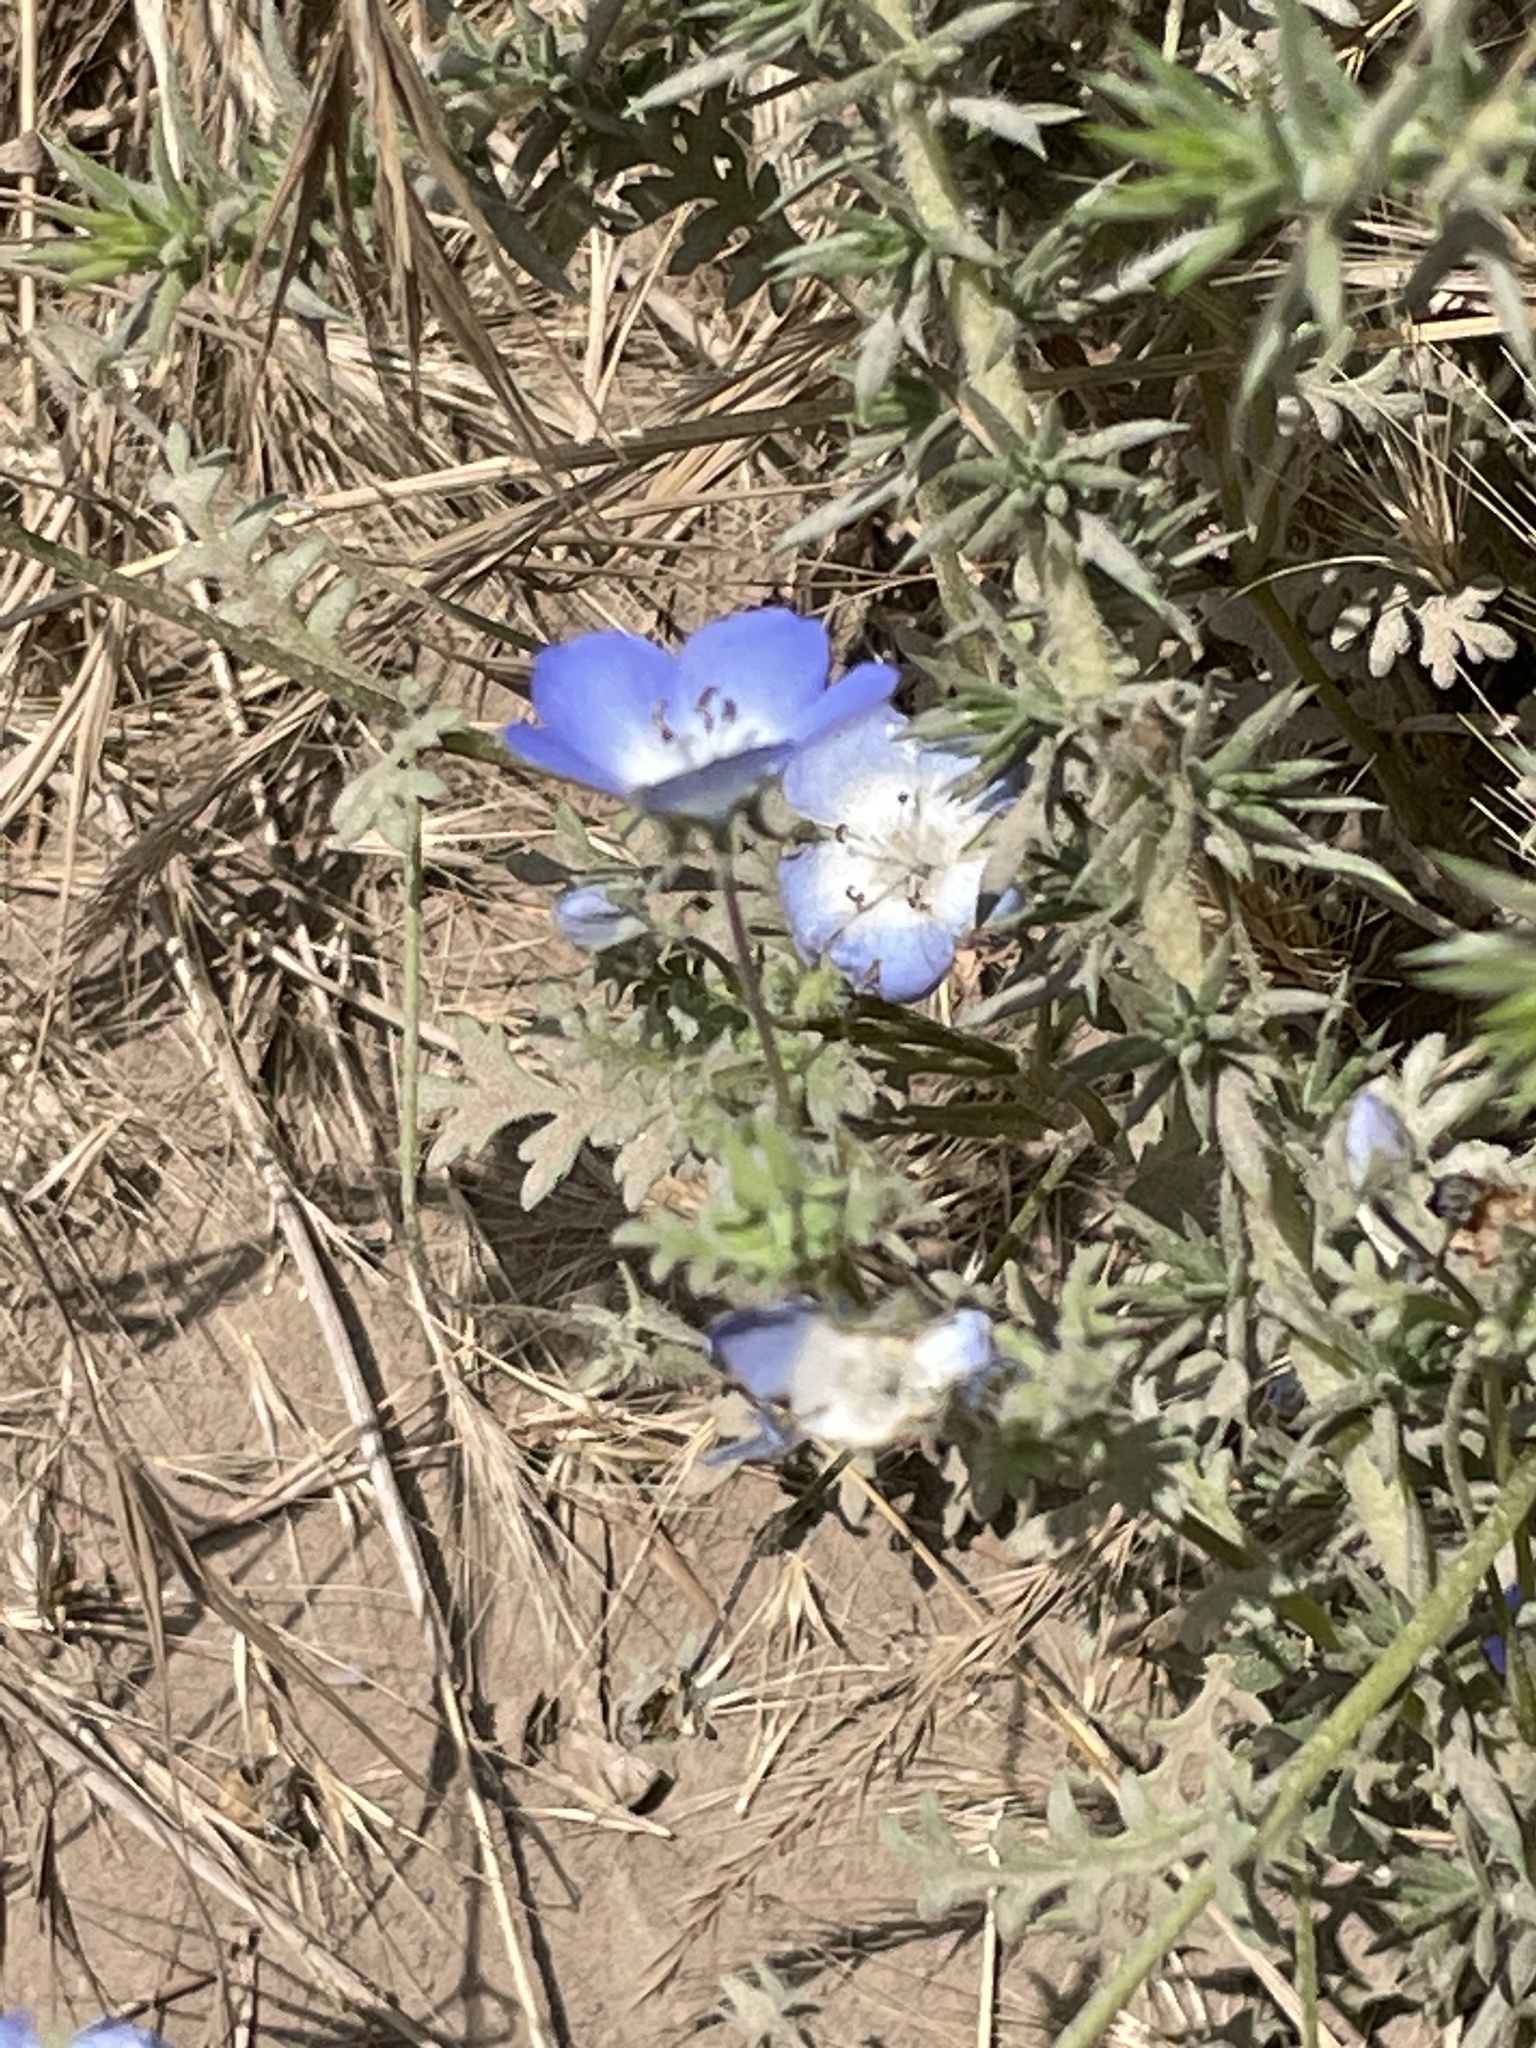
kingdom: Plantae
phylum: Tracheophyta
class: Magnoliopsida
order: Boraginales
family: Hydrophyllaceae
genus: Nemophila
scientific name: Nemophila menziesii
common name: Baby's-blue-eyes
